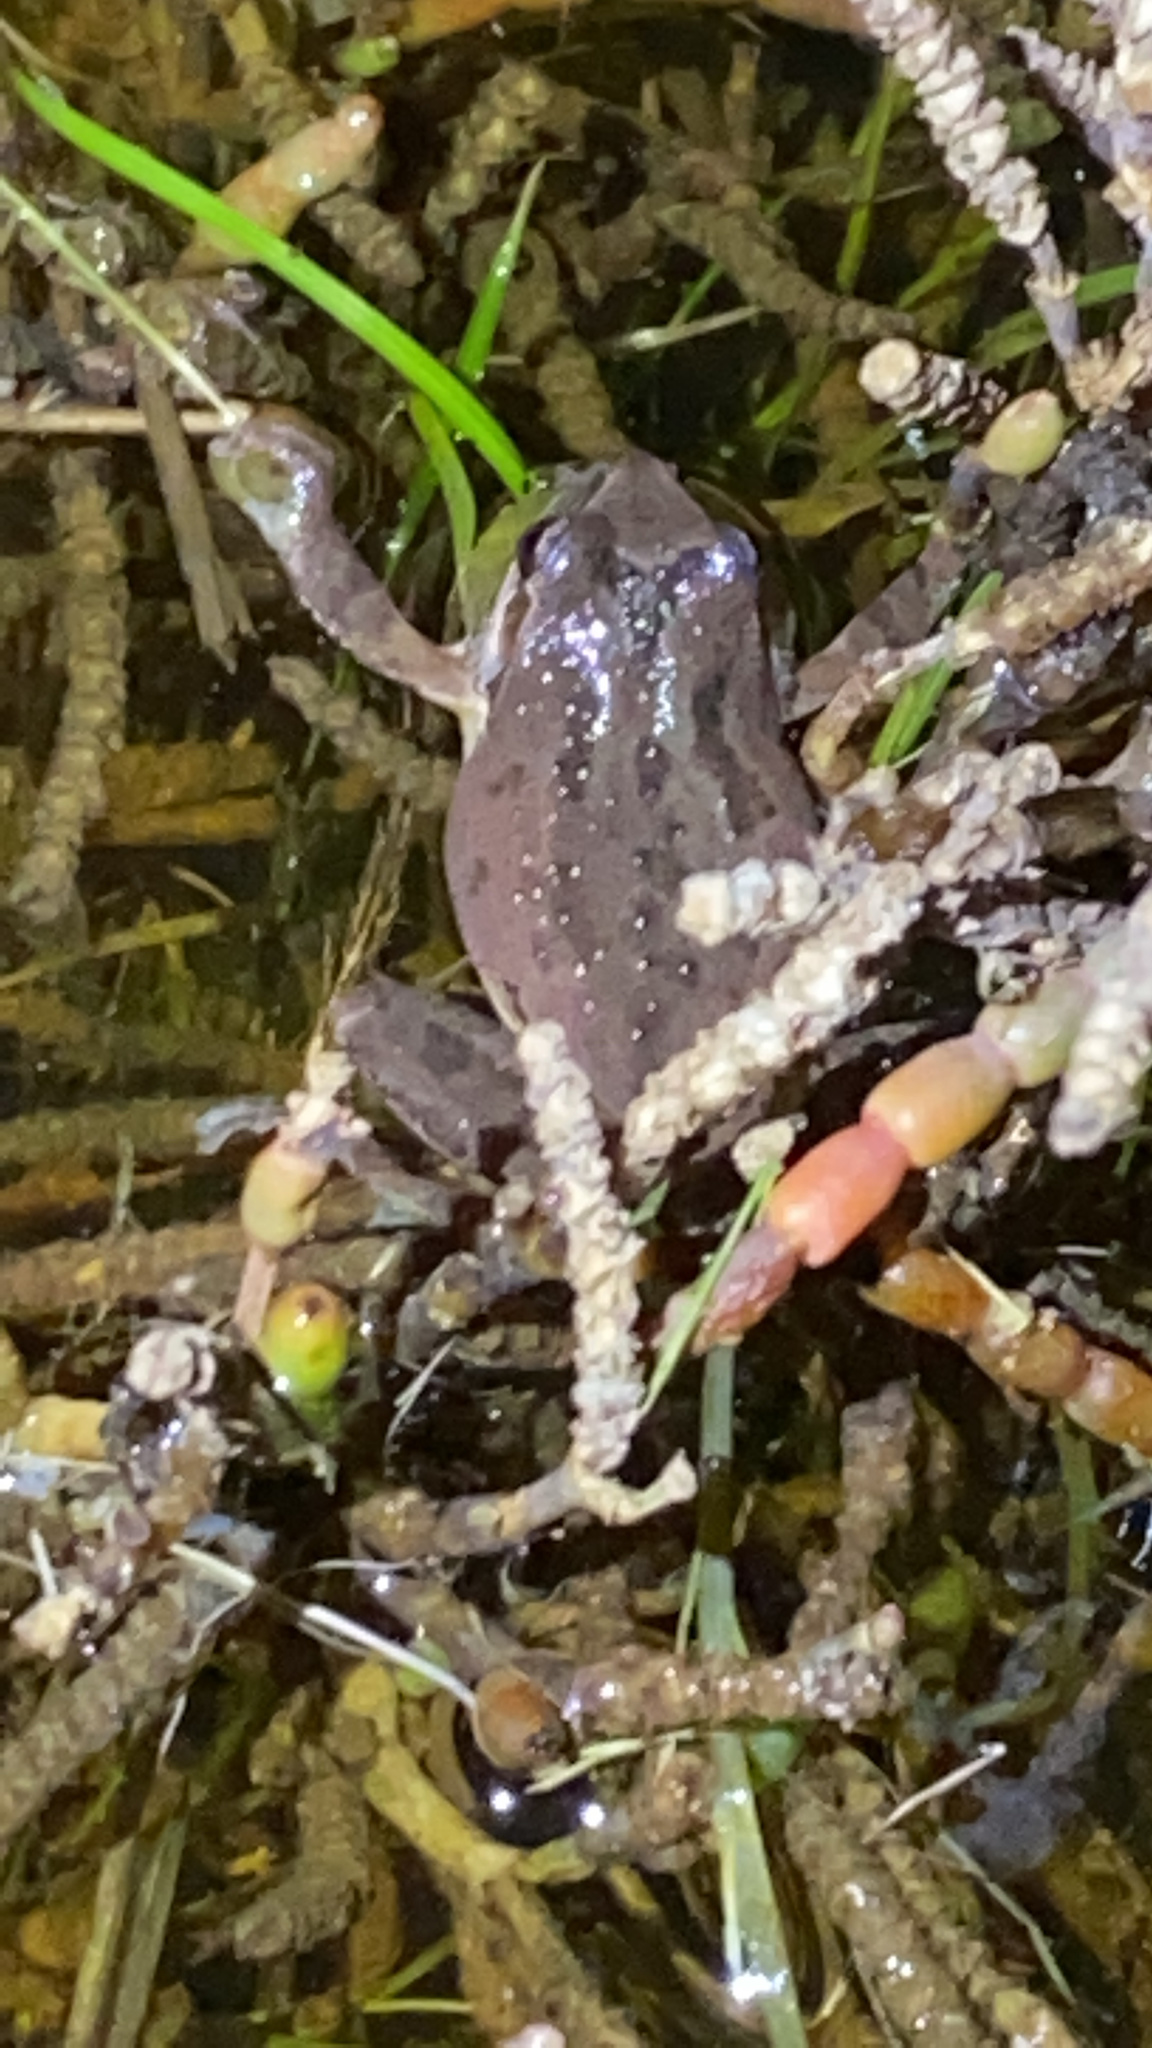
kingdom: Animalia
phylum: Chordata
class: Amphibia
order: Anura
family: Hylidae
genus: Pseudacris
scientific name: Pseudacris regilla
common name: Pacific chorus frog
